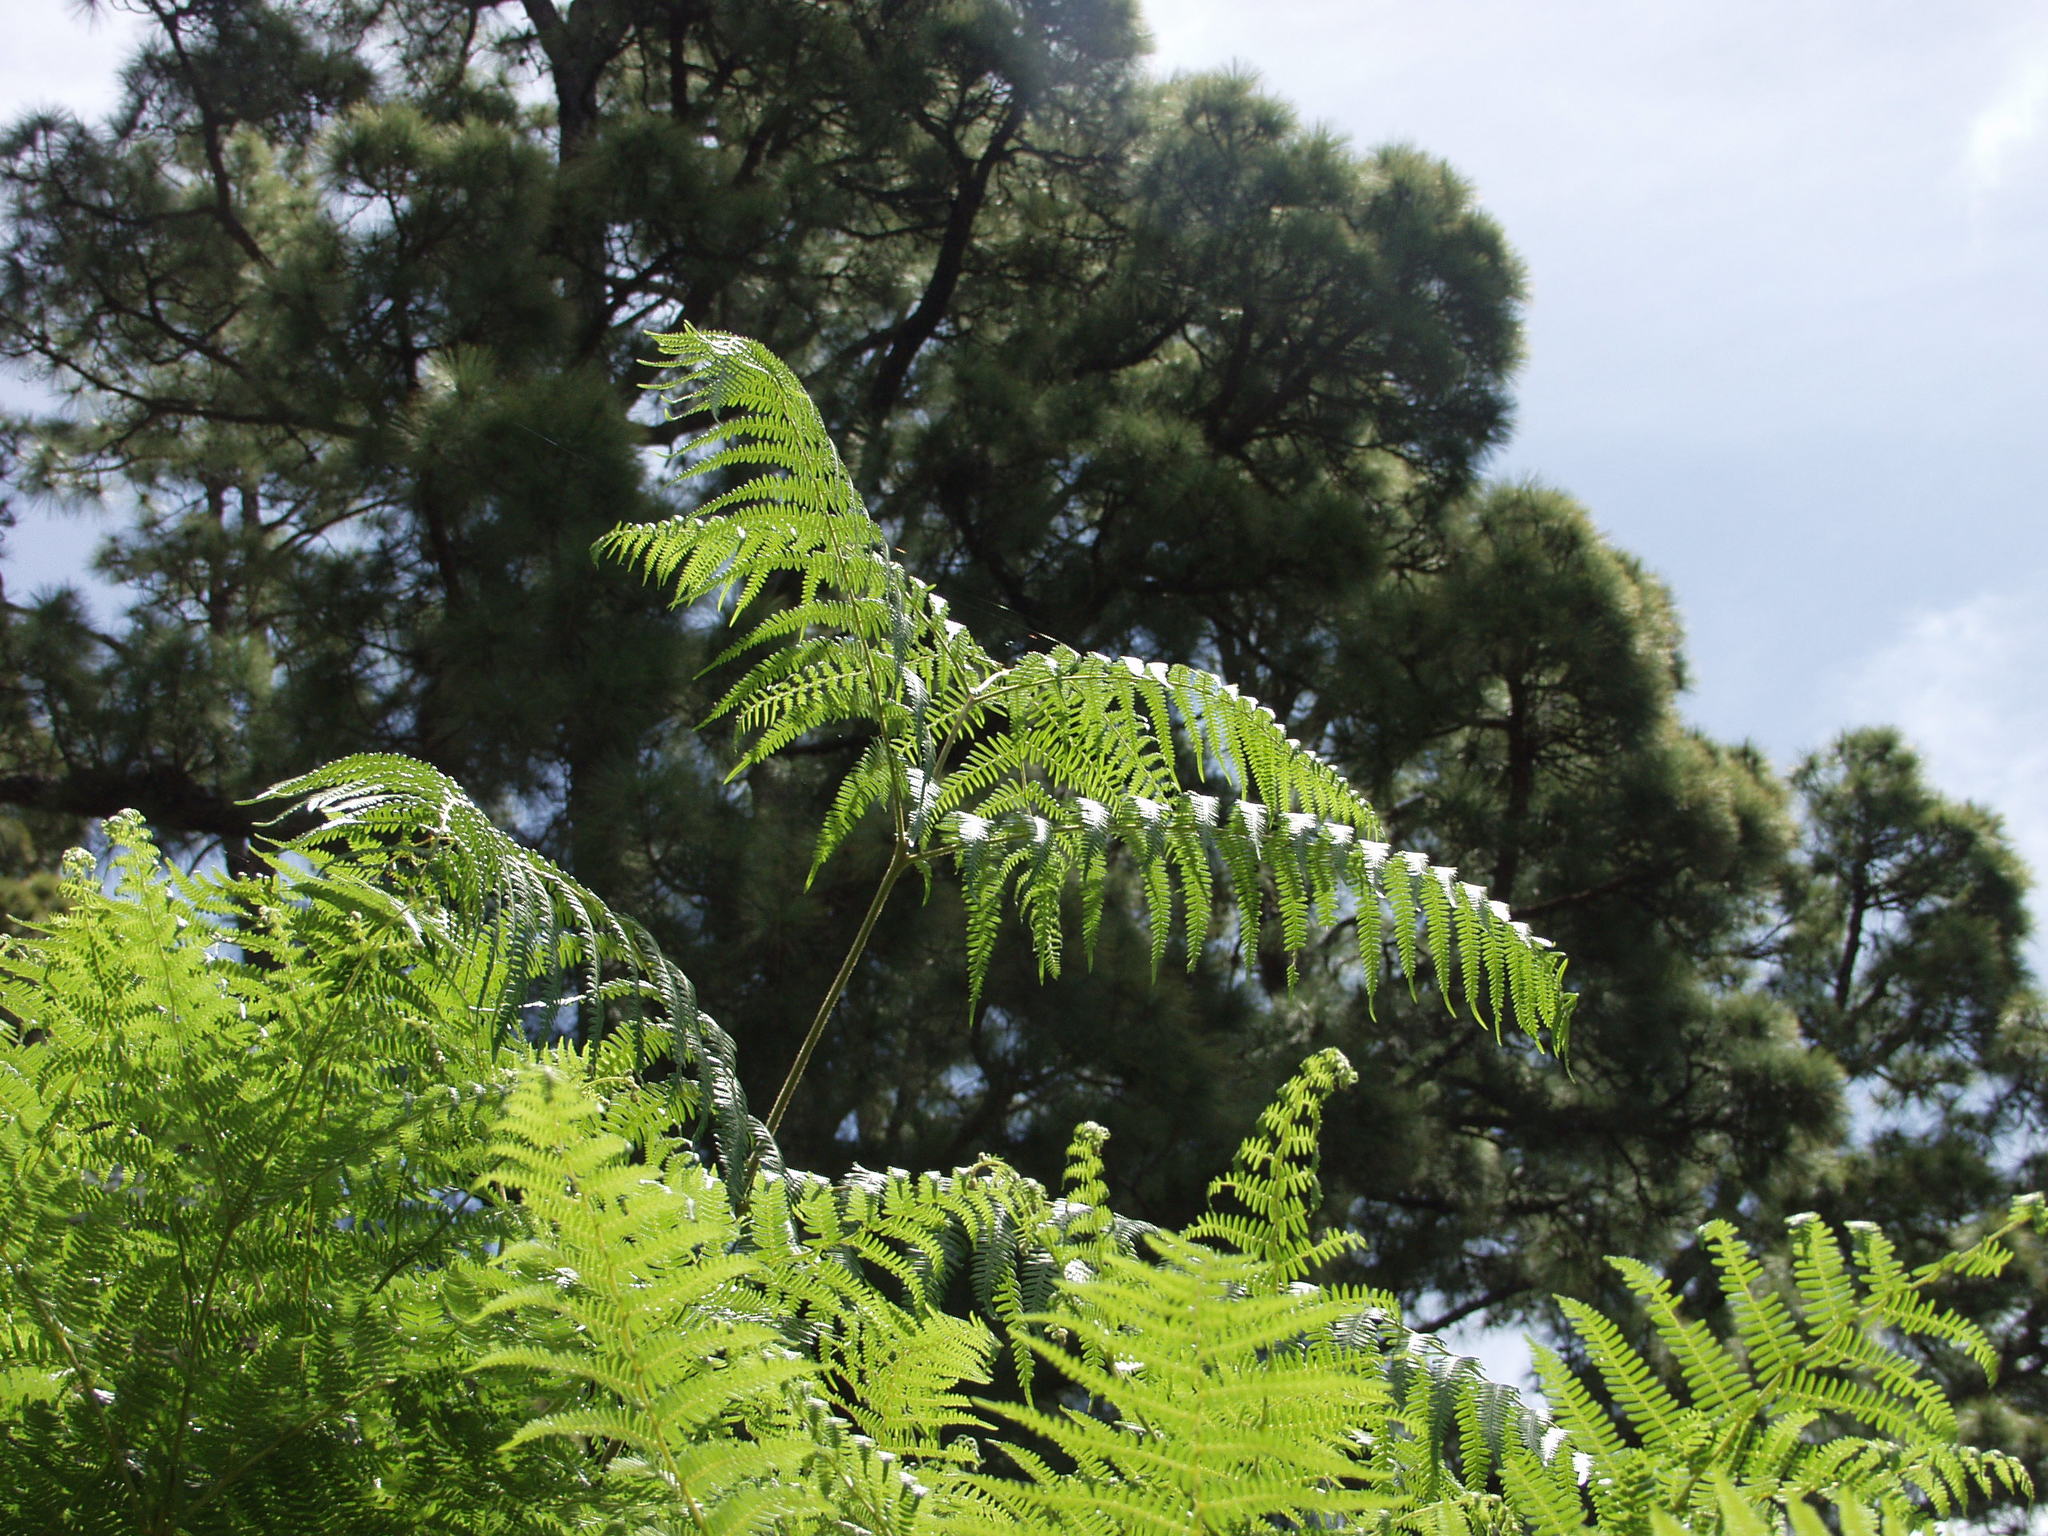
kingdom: Plantae
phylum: Tracheophyta
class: Polypodiopsida
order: Polypodiales
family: Dennstaedtiaceae
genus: Pteridium
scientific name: Pteridium aquilinum
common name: Bracken
